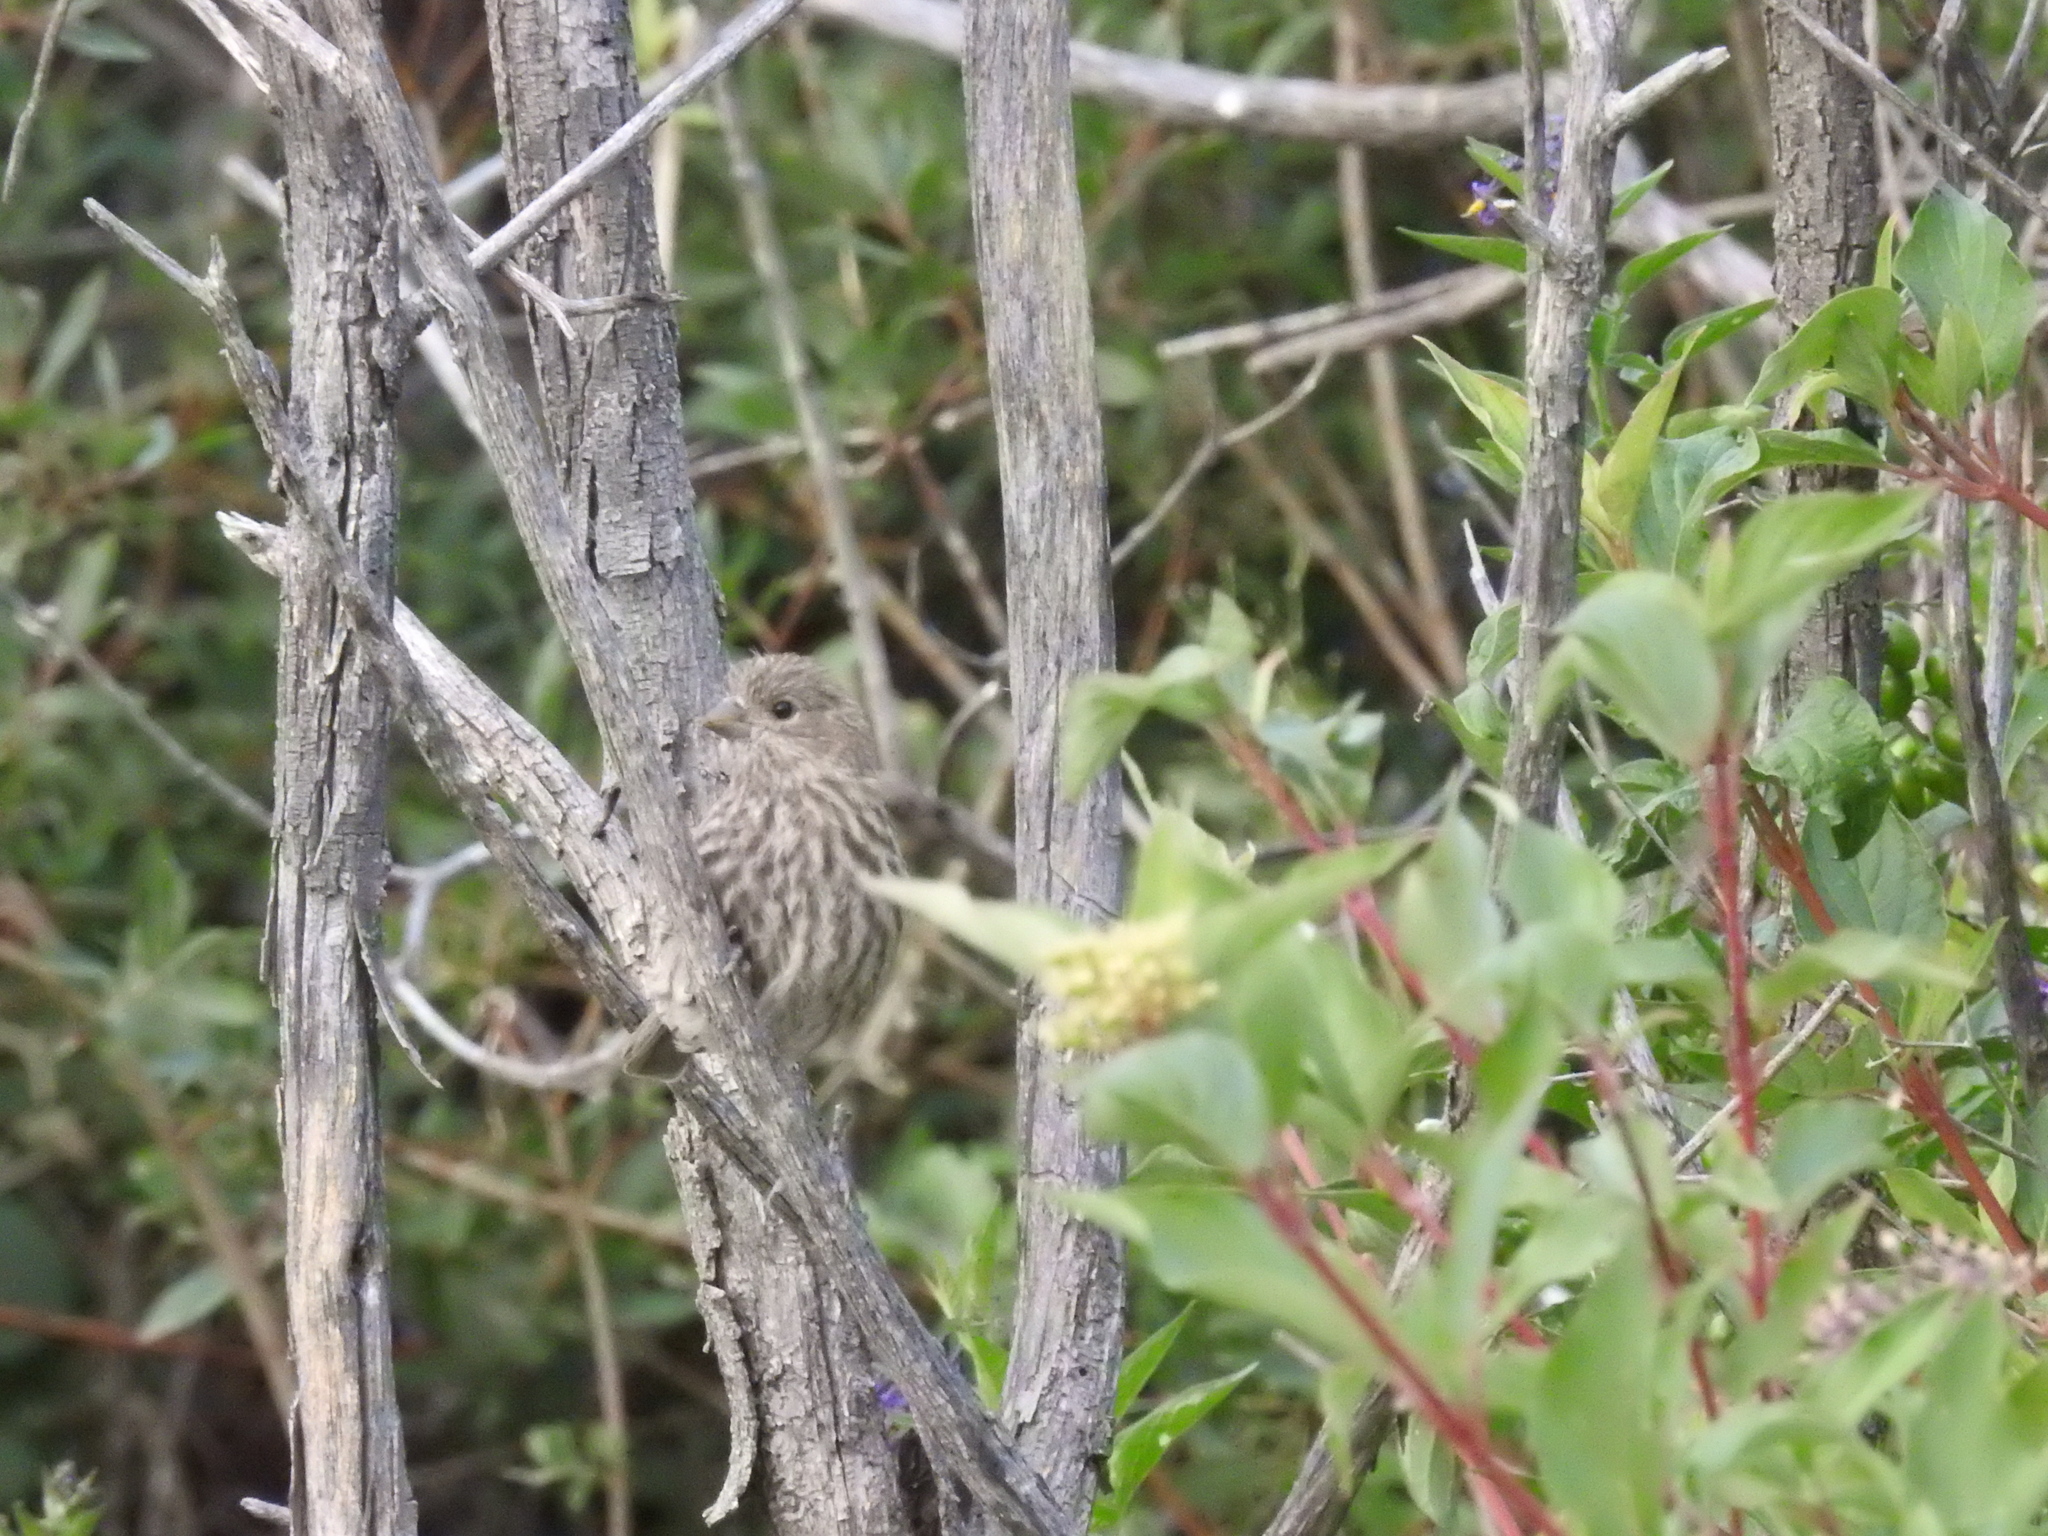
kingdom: Animalia
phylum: Chordata
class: Aves
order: Passeriformes
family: Fringillidae
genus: Haemorhous
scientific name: Haemorhous mexicanus
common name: House finch
